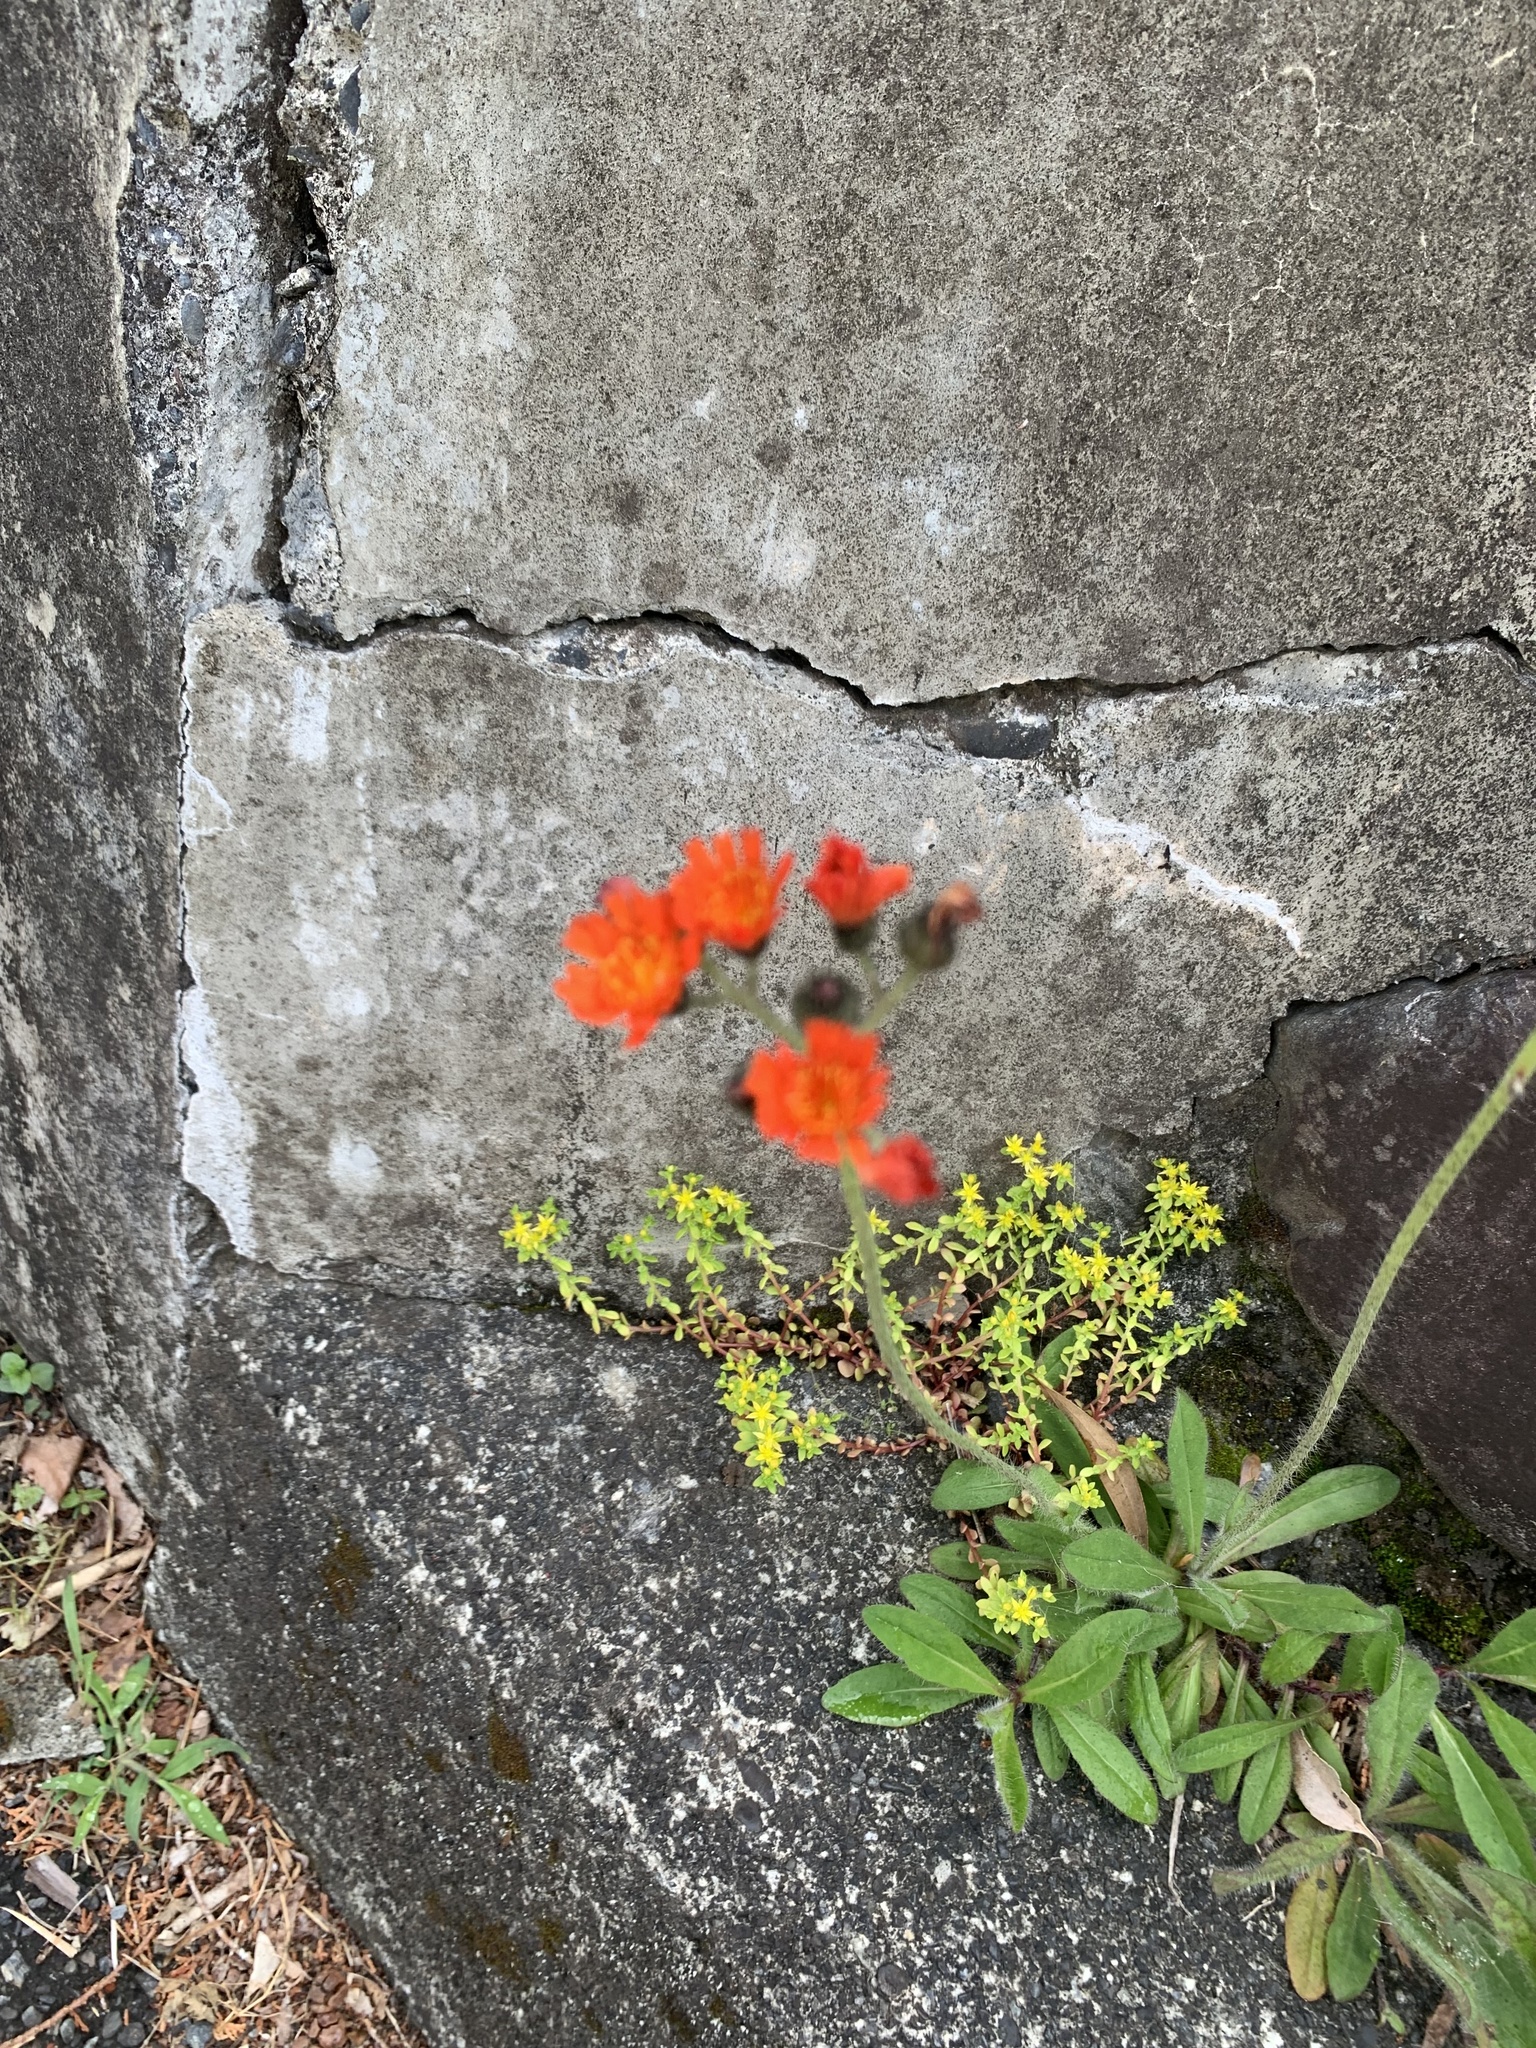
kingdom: Plantae
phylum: Tracheophyta
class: Magnoliopsida
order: Asterales
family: Asteraceae
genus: Pilosella
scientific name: Pilosella aurantiaca
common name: Fox-and-cubs
